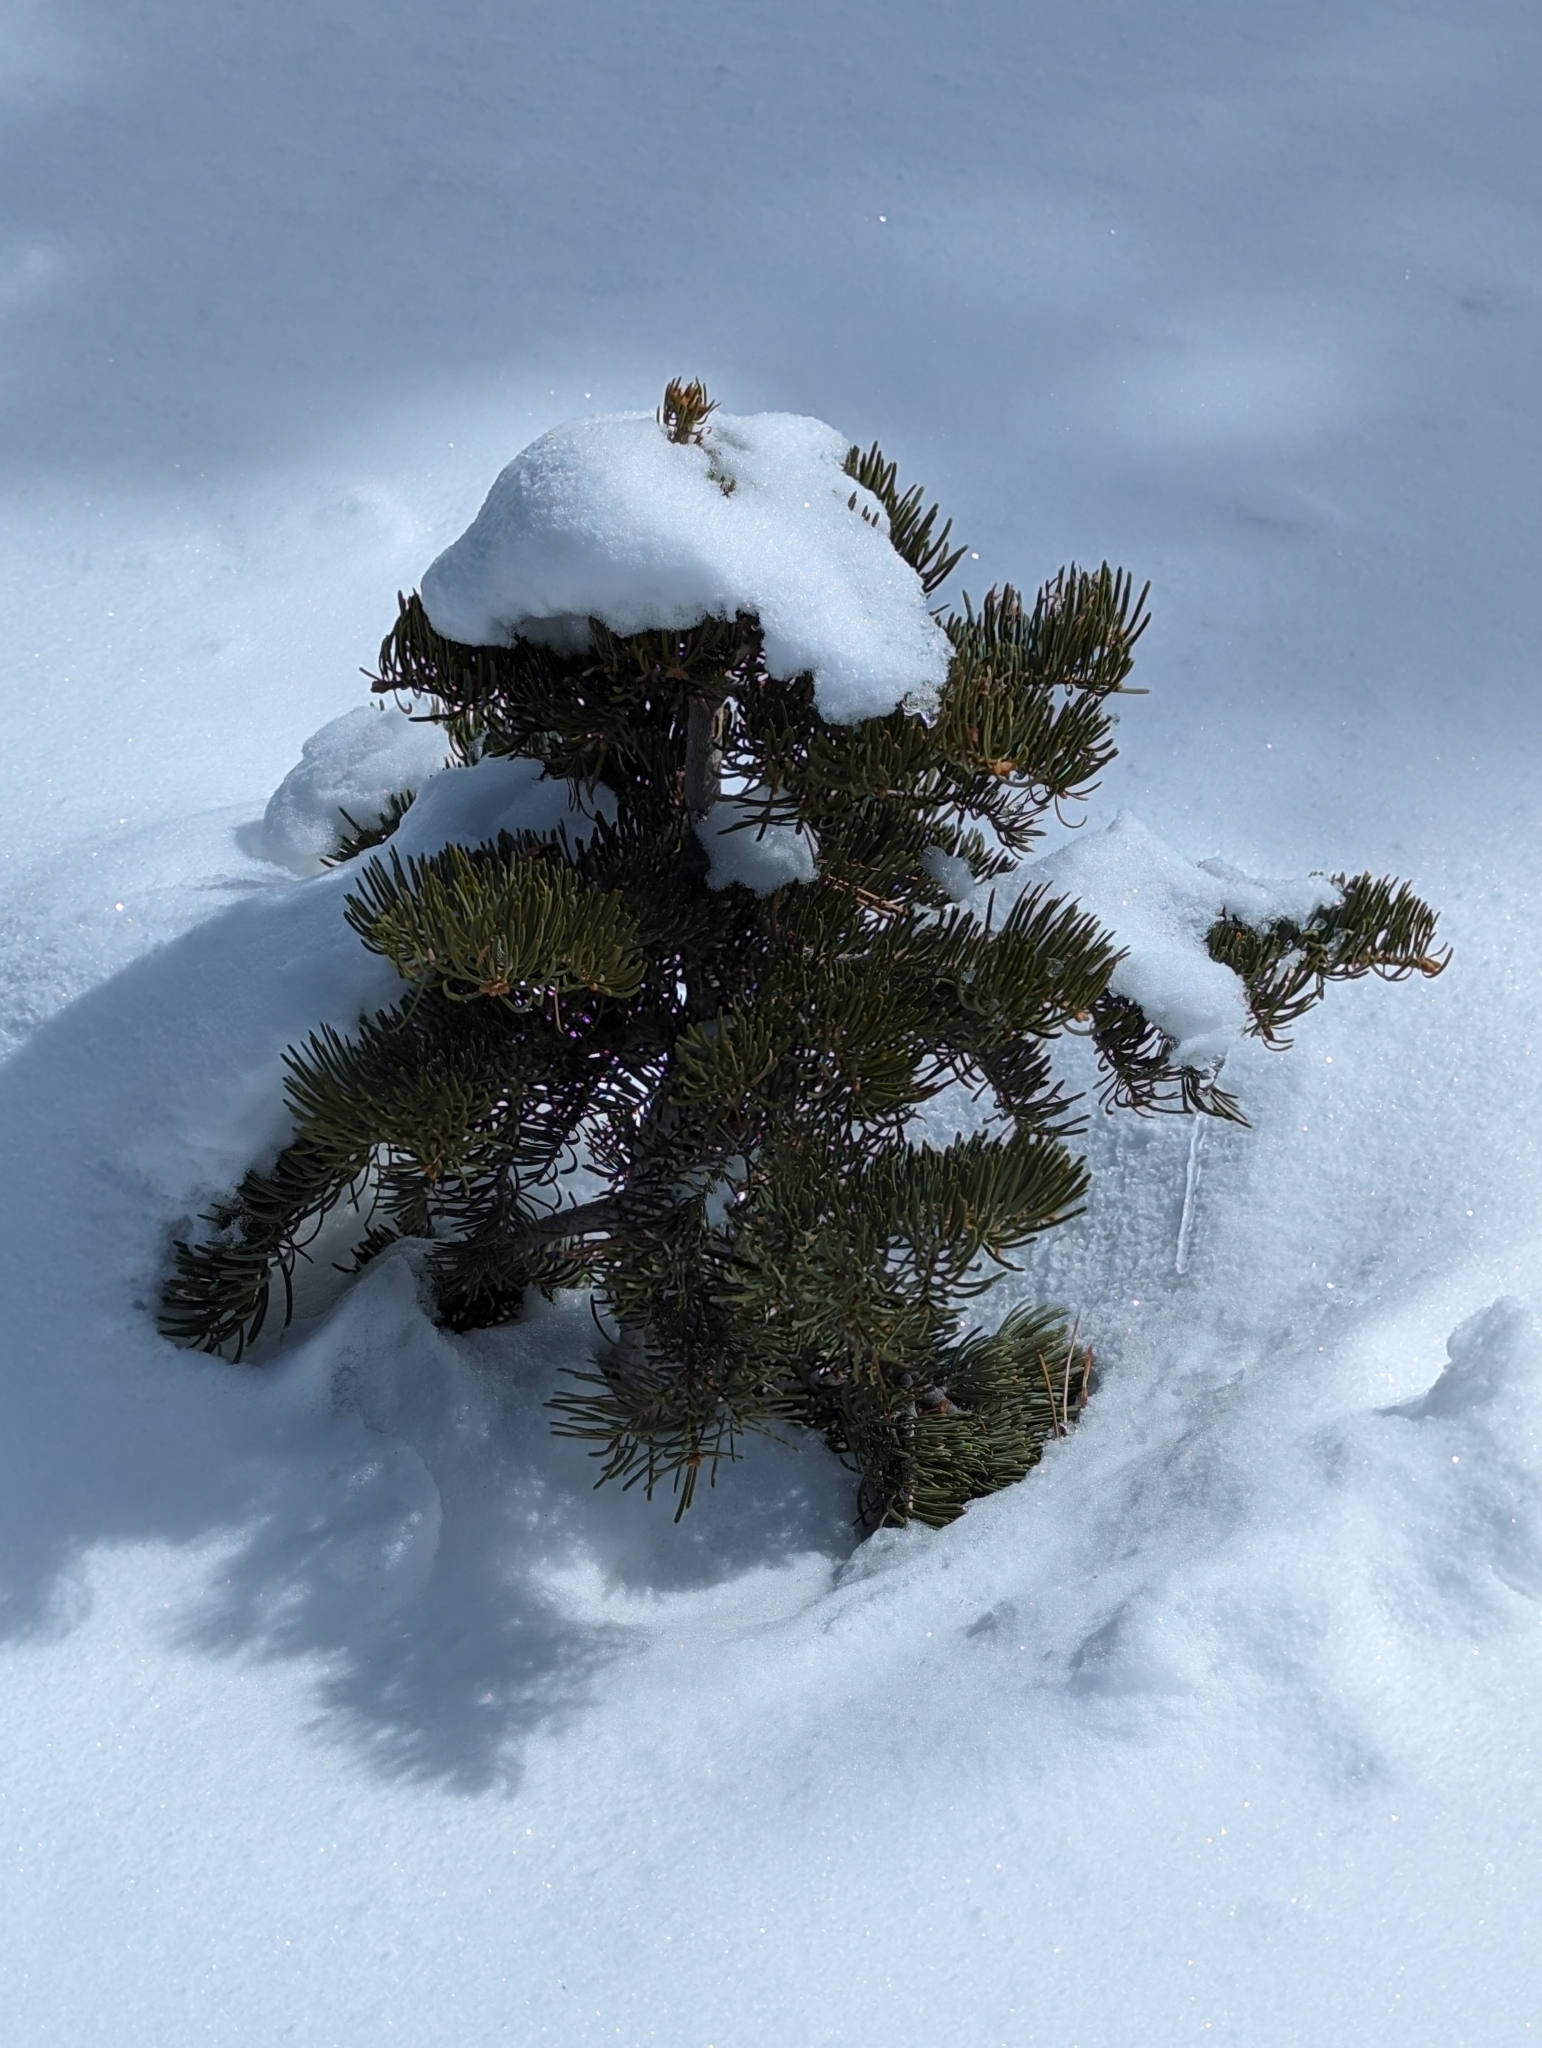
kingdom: Plantae
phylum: Tracheophyta
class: Pinopsida
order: Pinales
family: Pinaceae
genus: Abies
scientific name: Abies concolor
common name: Colorado fir
